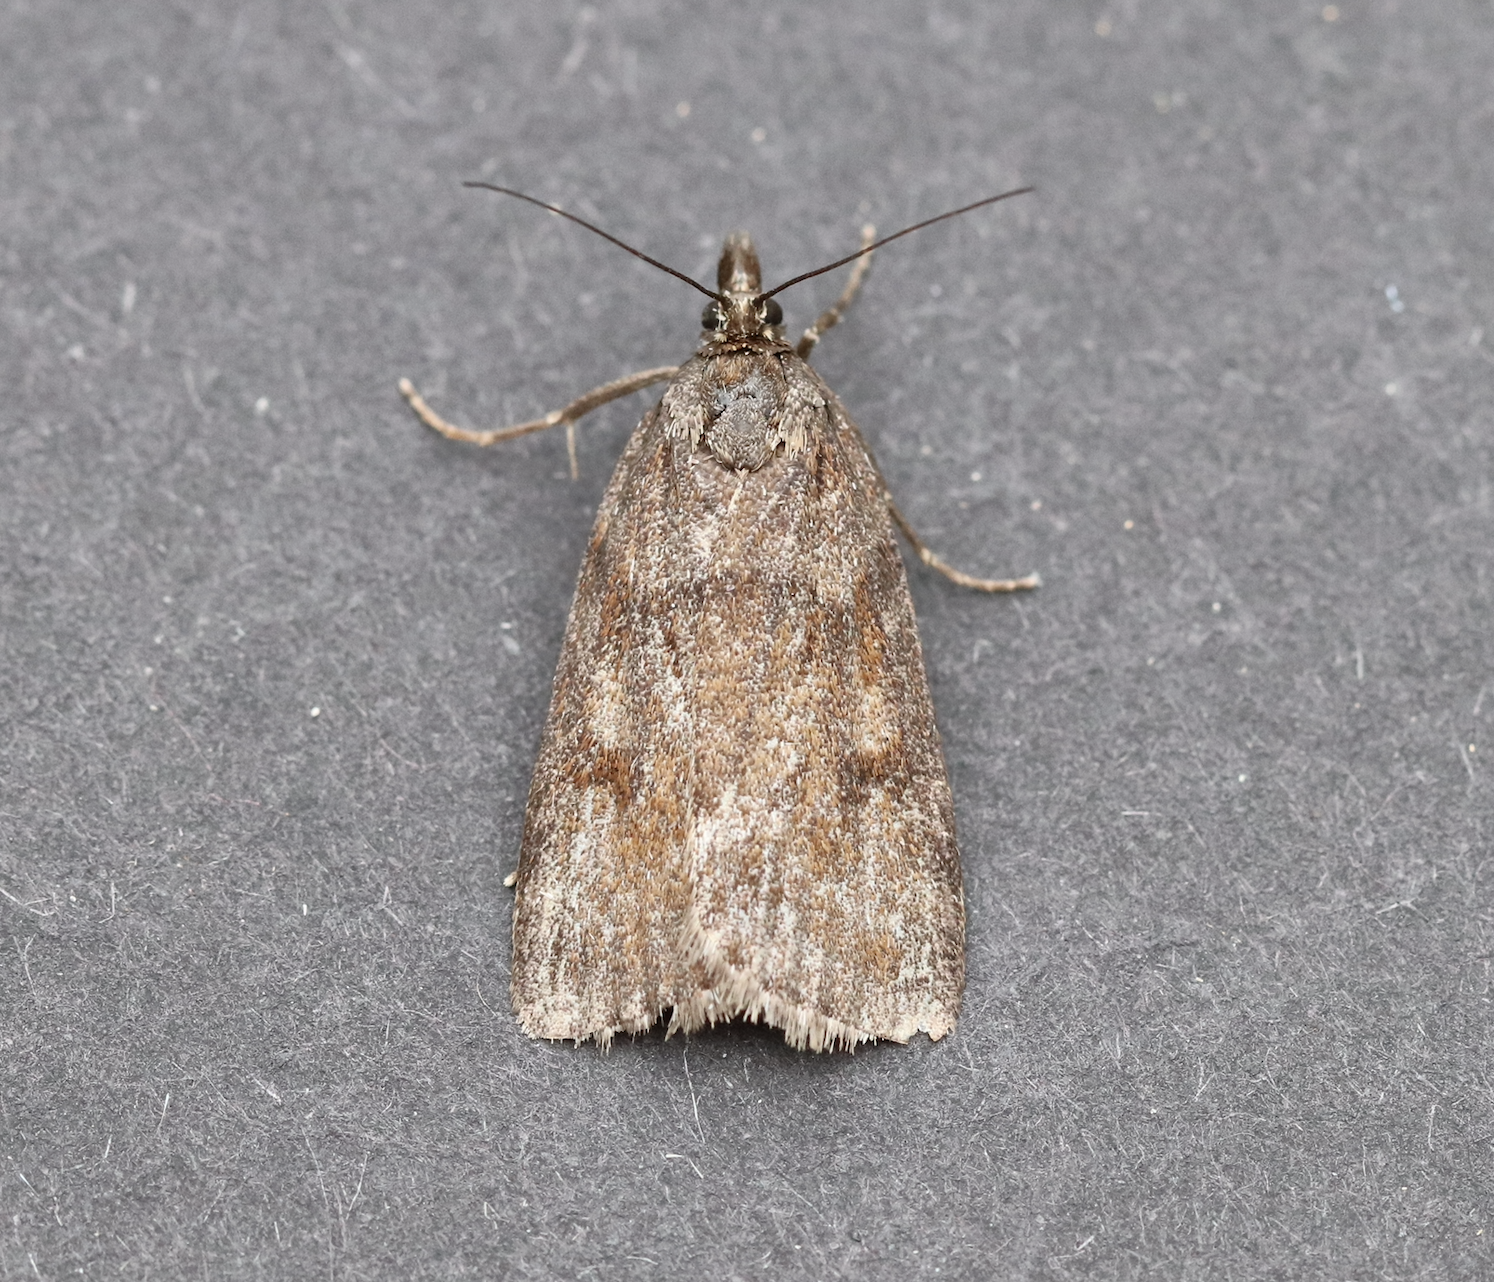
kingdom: Animalia
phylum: Arthropoda
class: Insecta
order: Lepidoptera
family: Crambidae
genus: Gesneria
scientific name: Gesneria centuriella
